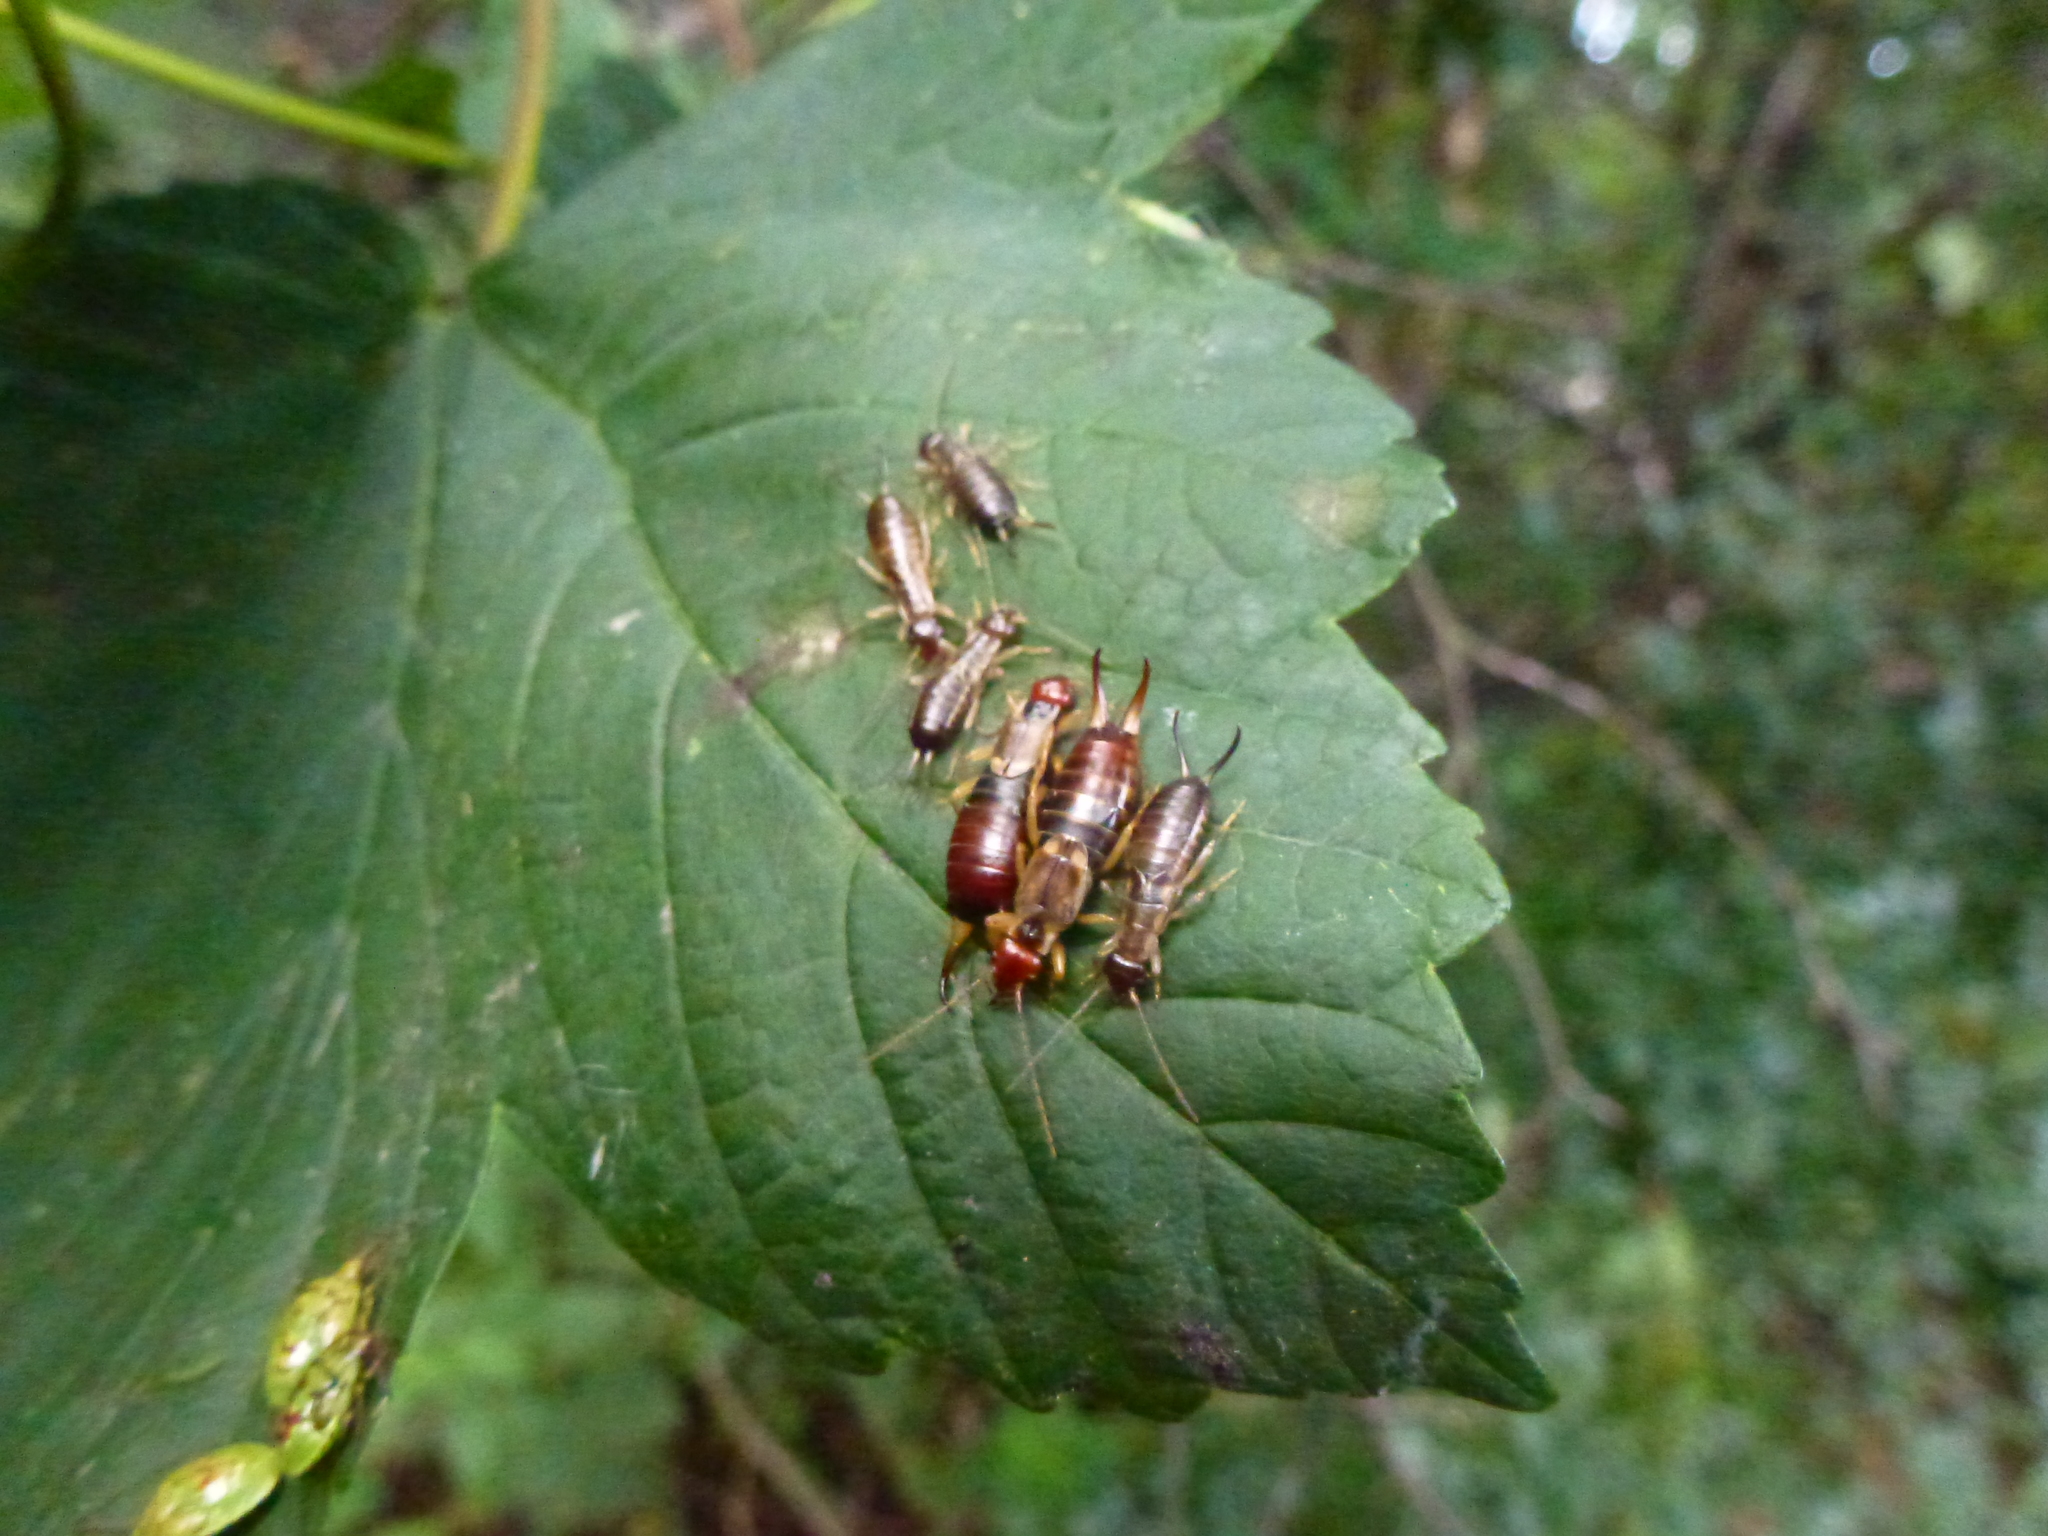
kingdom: Animalia
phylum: Arthropoda
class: Insecta
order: Dermaptera
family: Forficulidae
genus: Forficula
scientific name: Forficula
